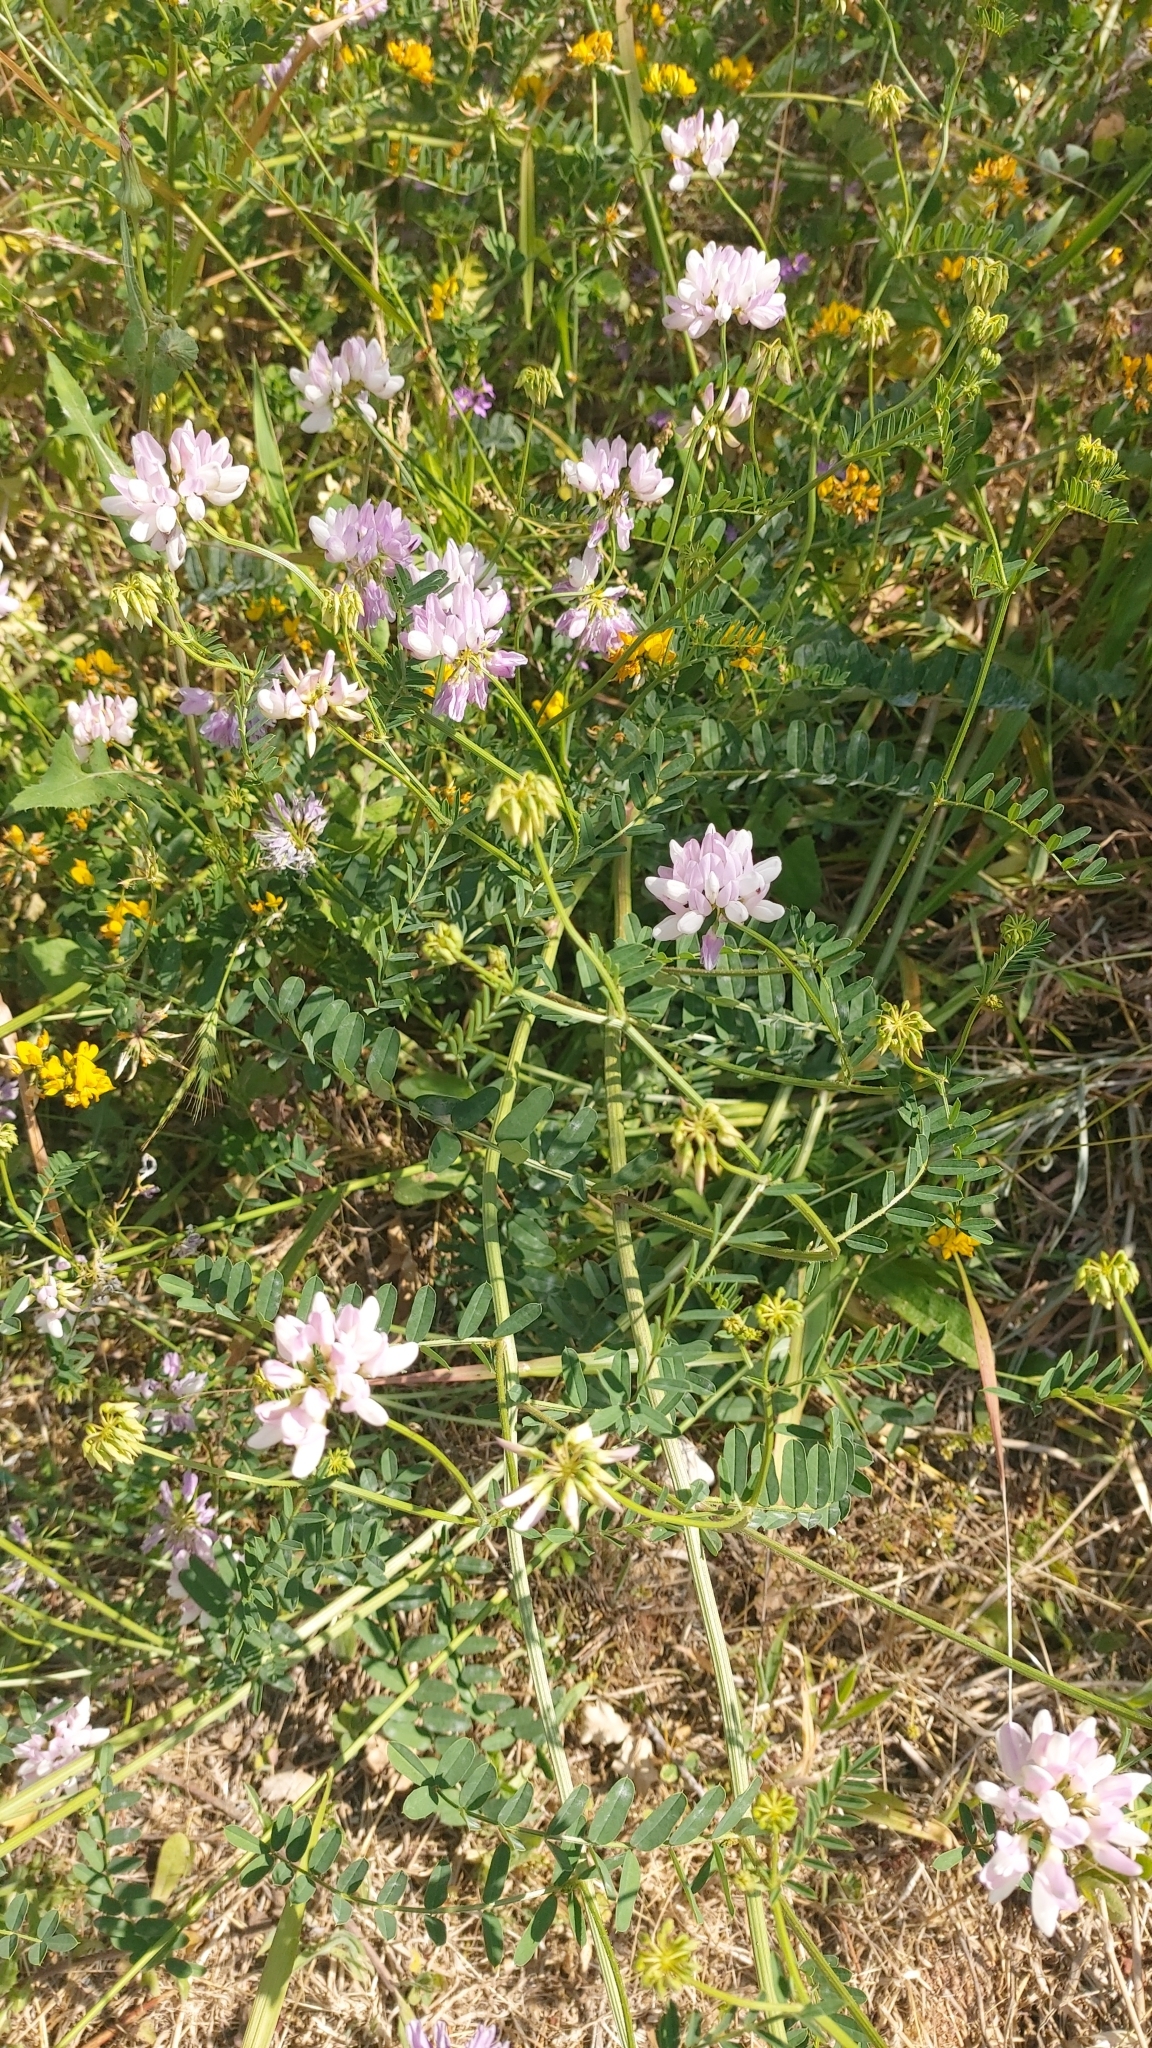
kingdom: Plantae
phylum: Tracheophyta
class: Magnoliopsida
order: Fabales
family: Fabaceae
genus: Coronilla
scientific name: Coronilla varia
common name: Crownvetch
